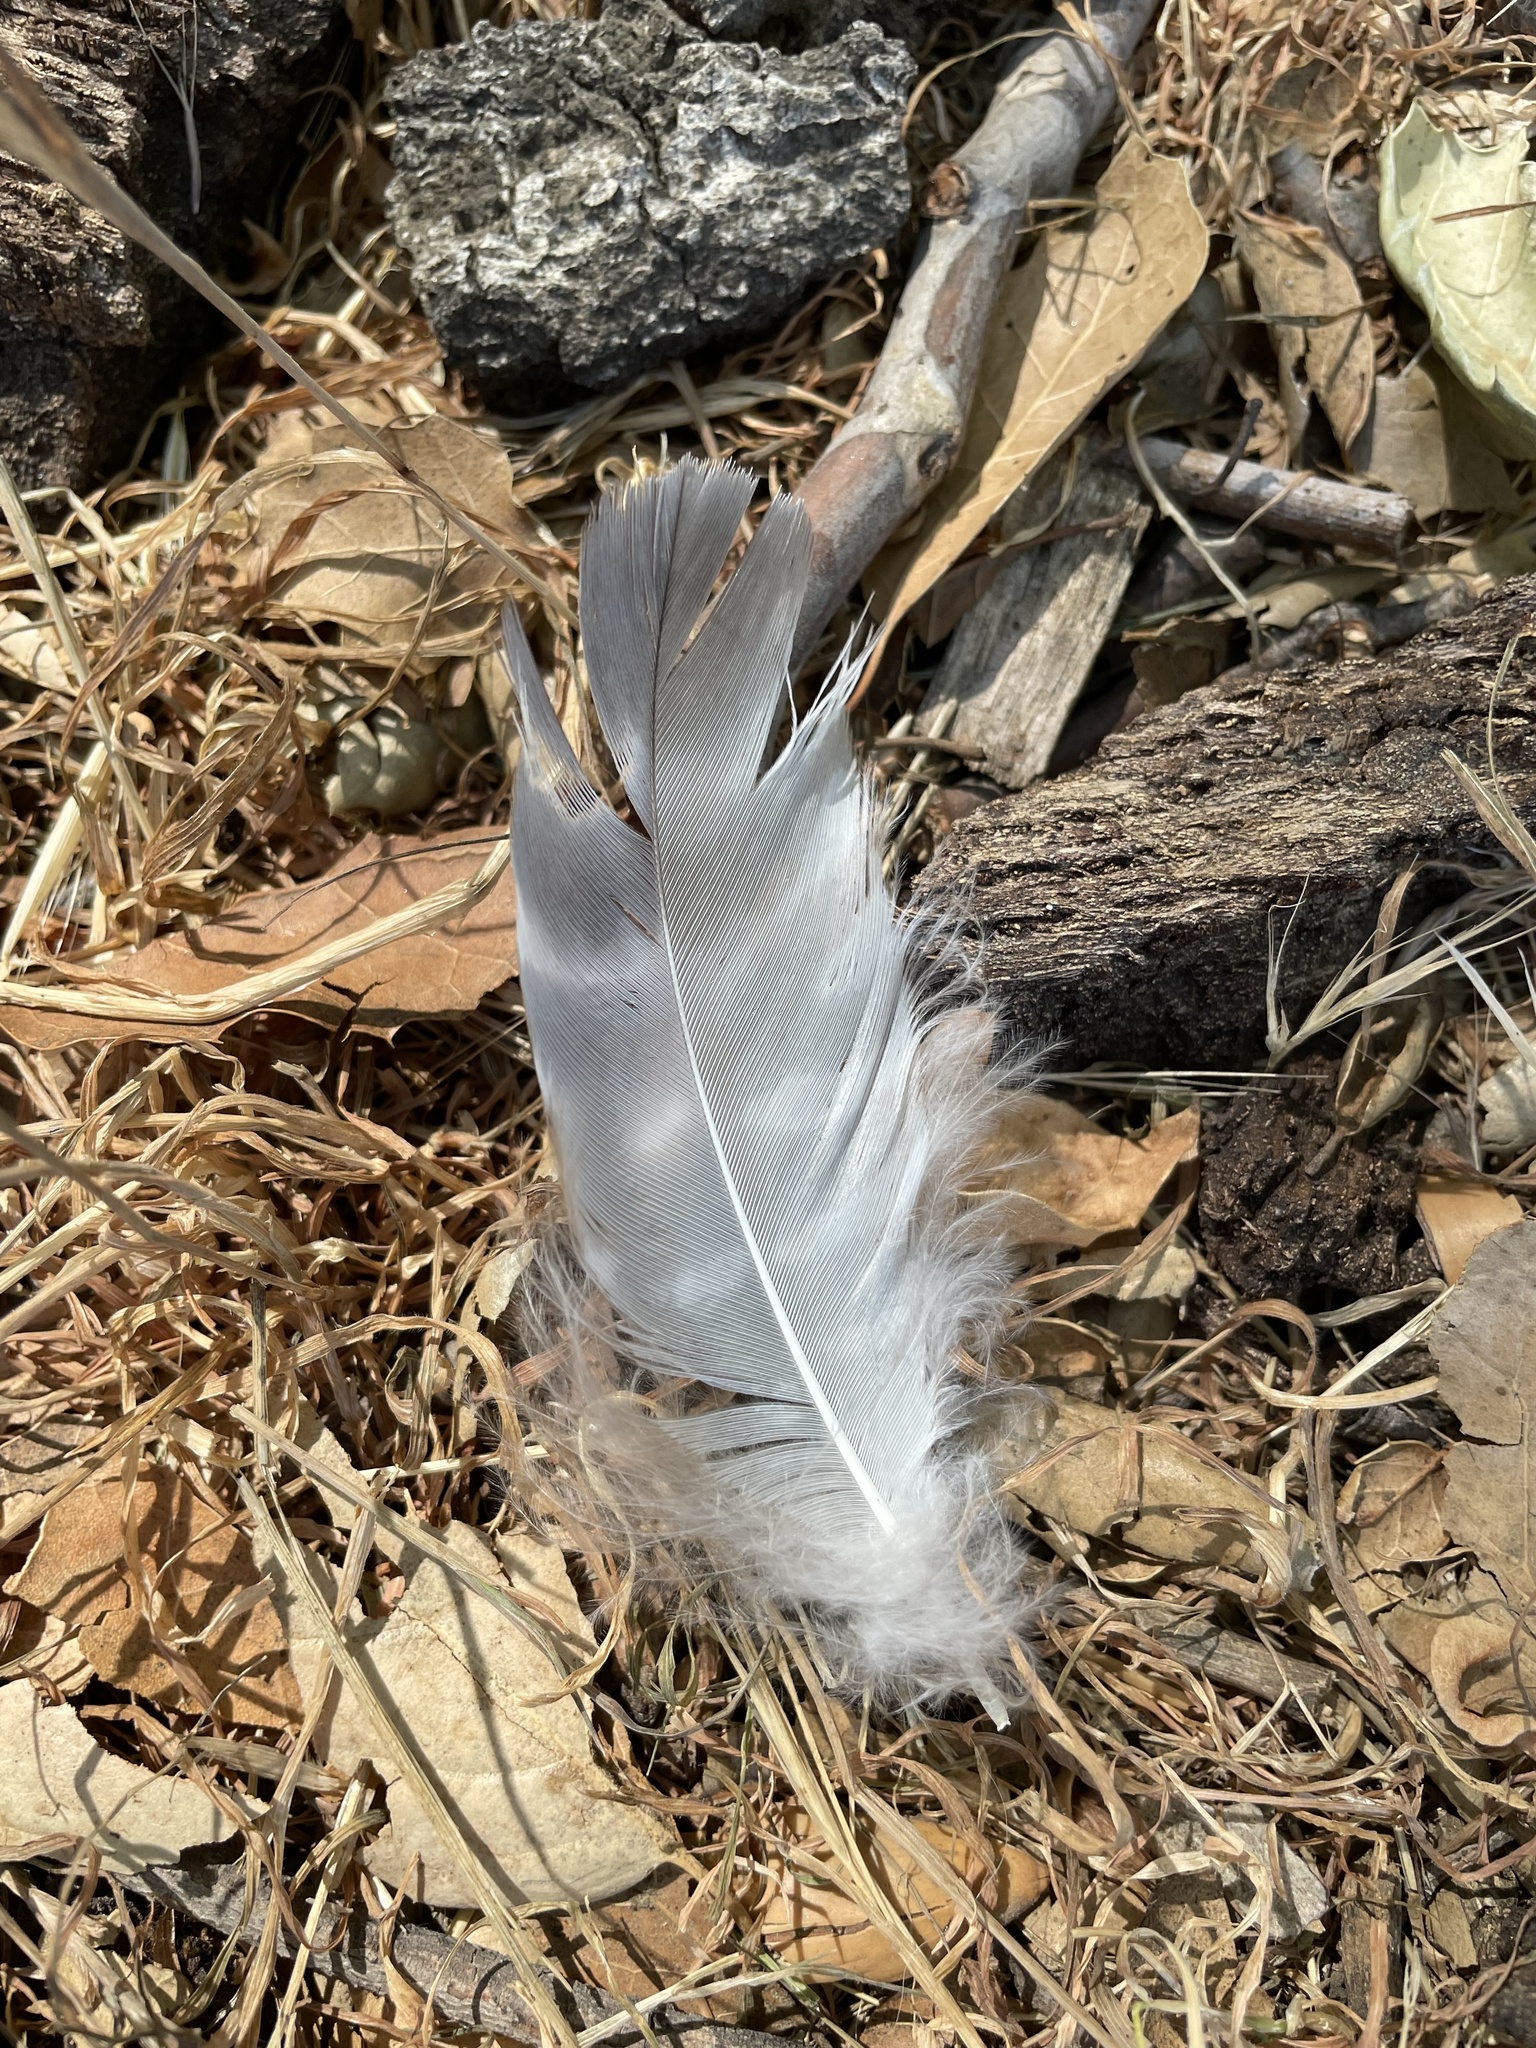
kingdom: Animalia
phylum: Chordata
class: Aves
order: Accipitriformes
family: Accipitridae
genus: Buteo
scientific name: Buteo lineatus
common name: Red-shouldered hawk
